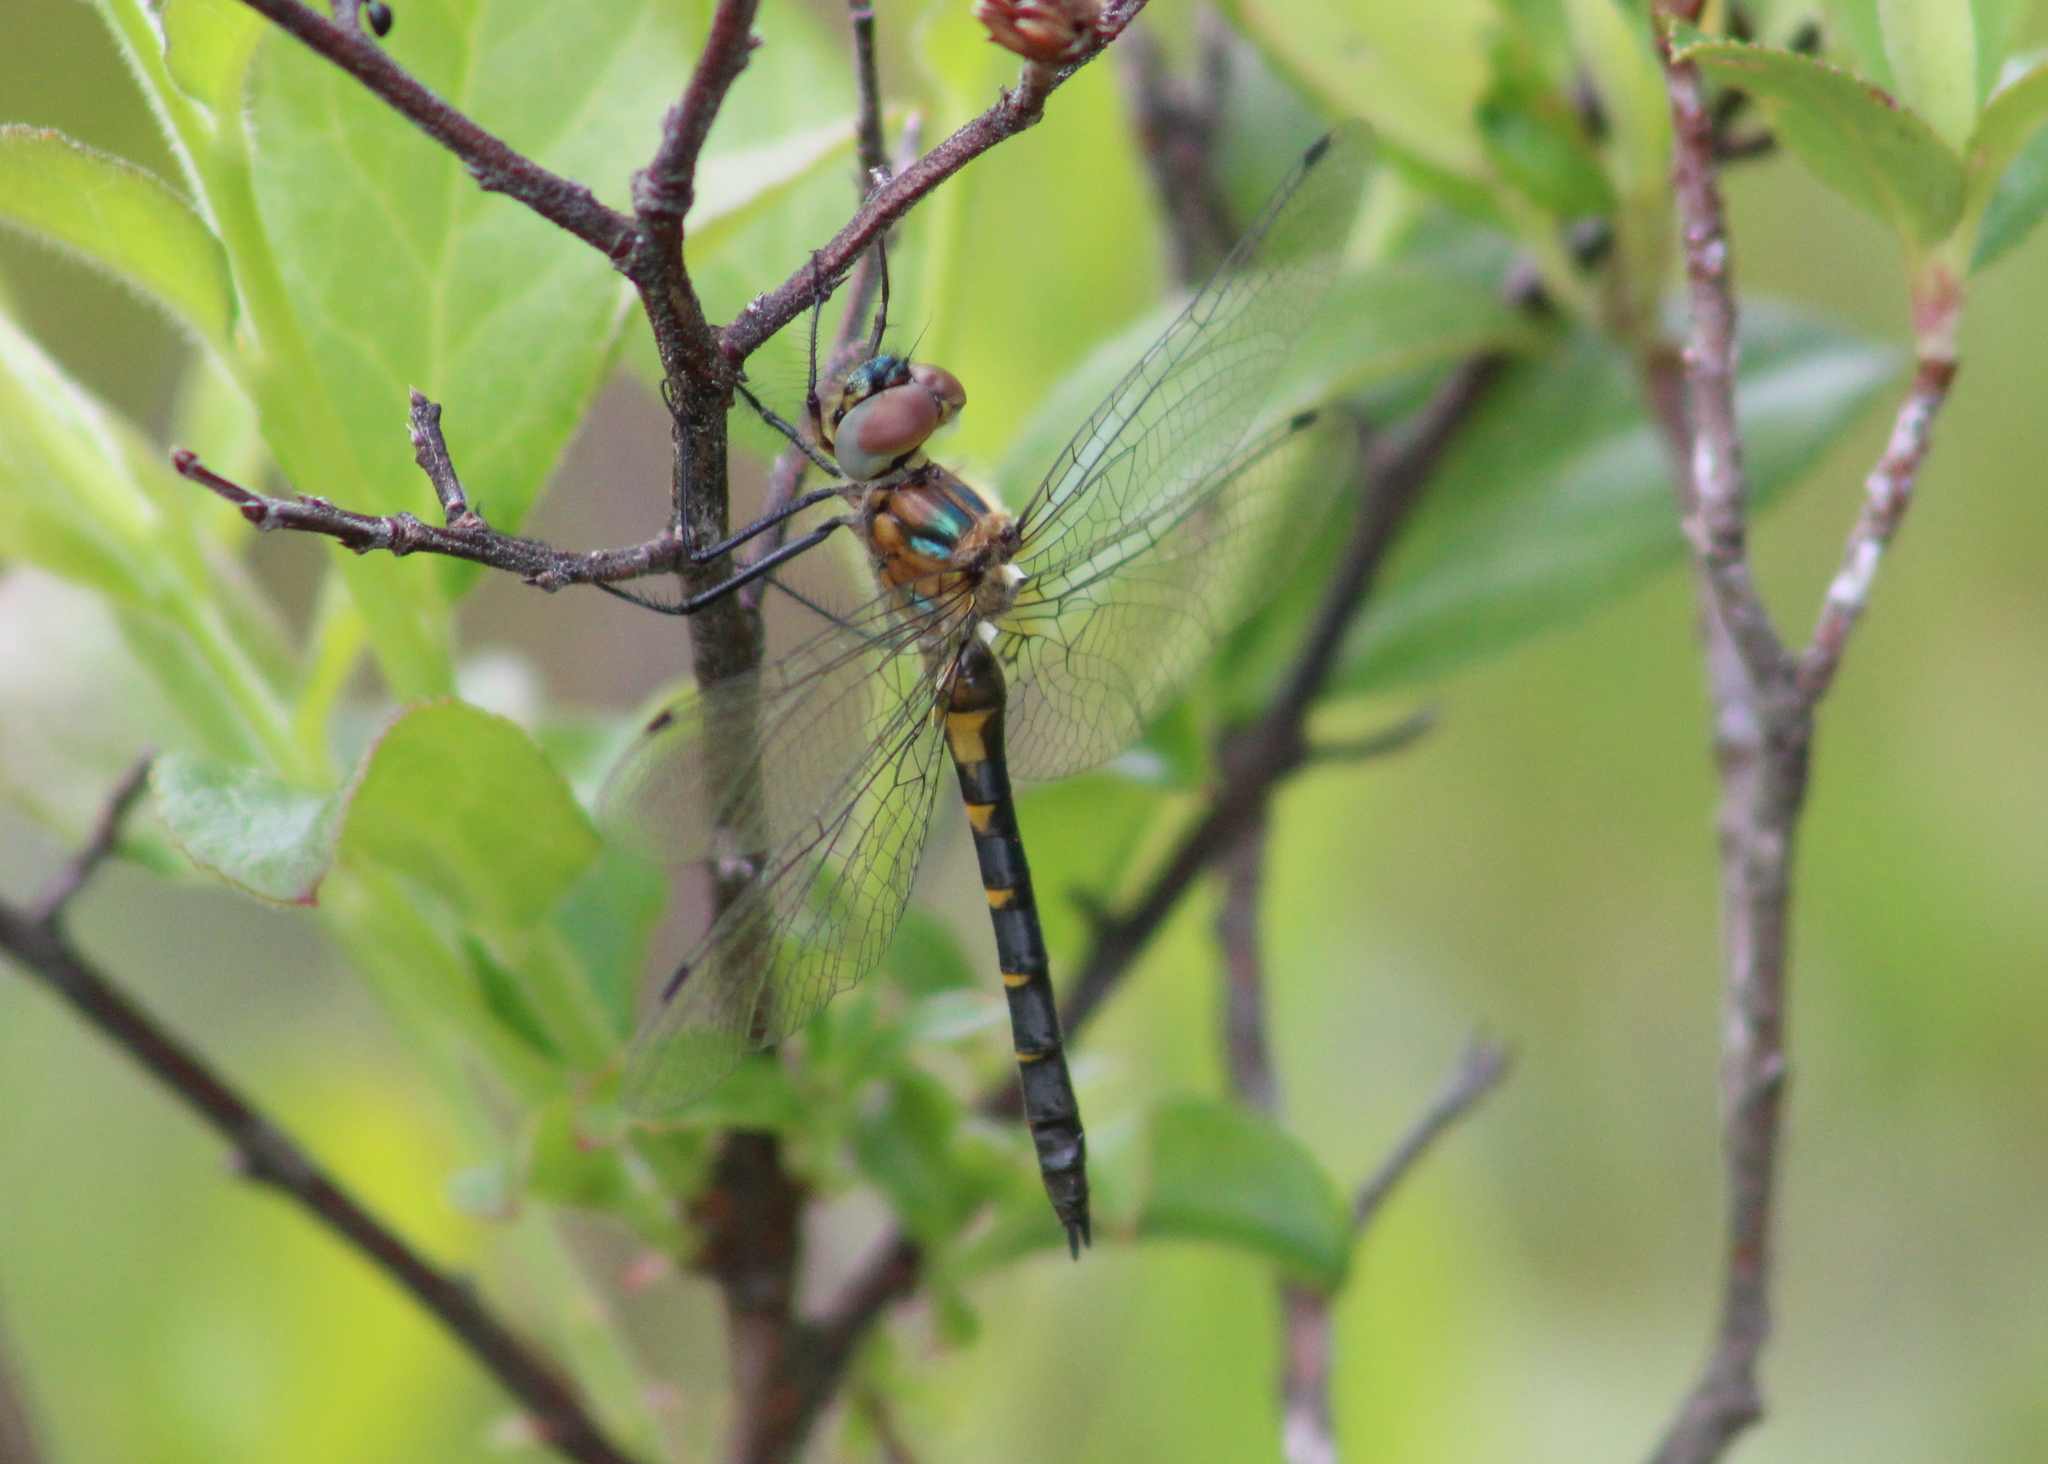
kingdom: Animalia
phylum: Arthropoda
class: Insecta
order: Odonata
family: Corduliidae
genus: Dorocordulia
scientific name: Dorocordulia lepida
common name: Petite emerald
